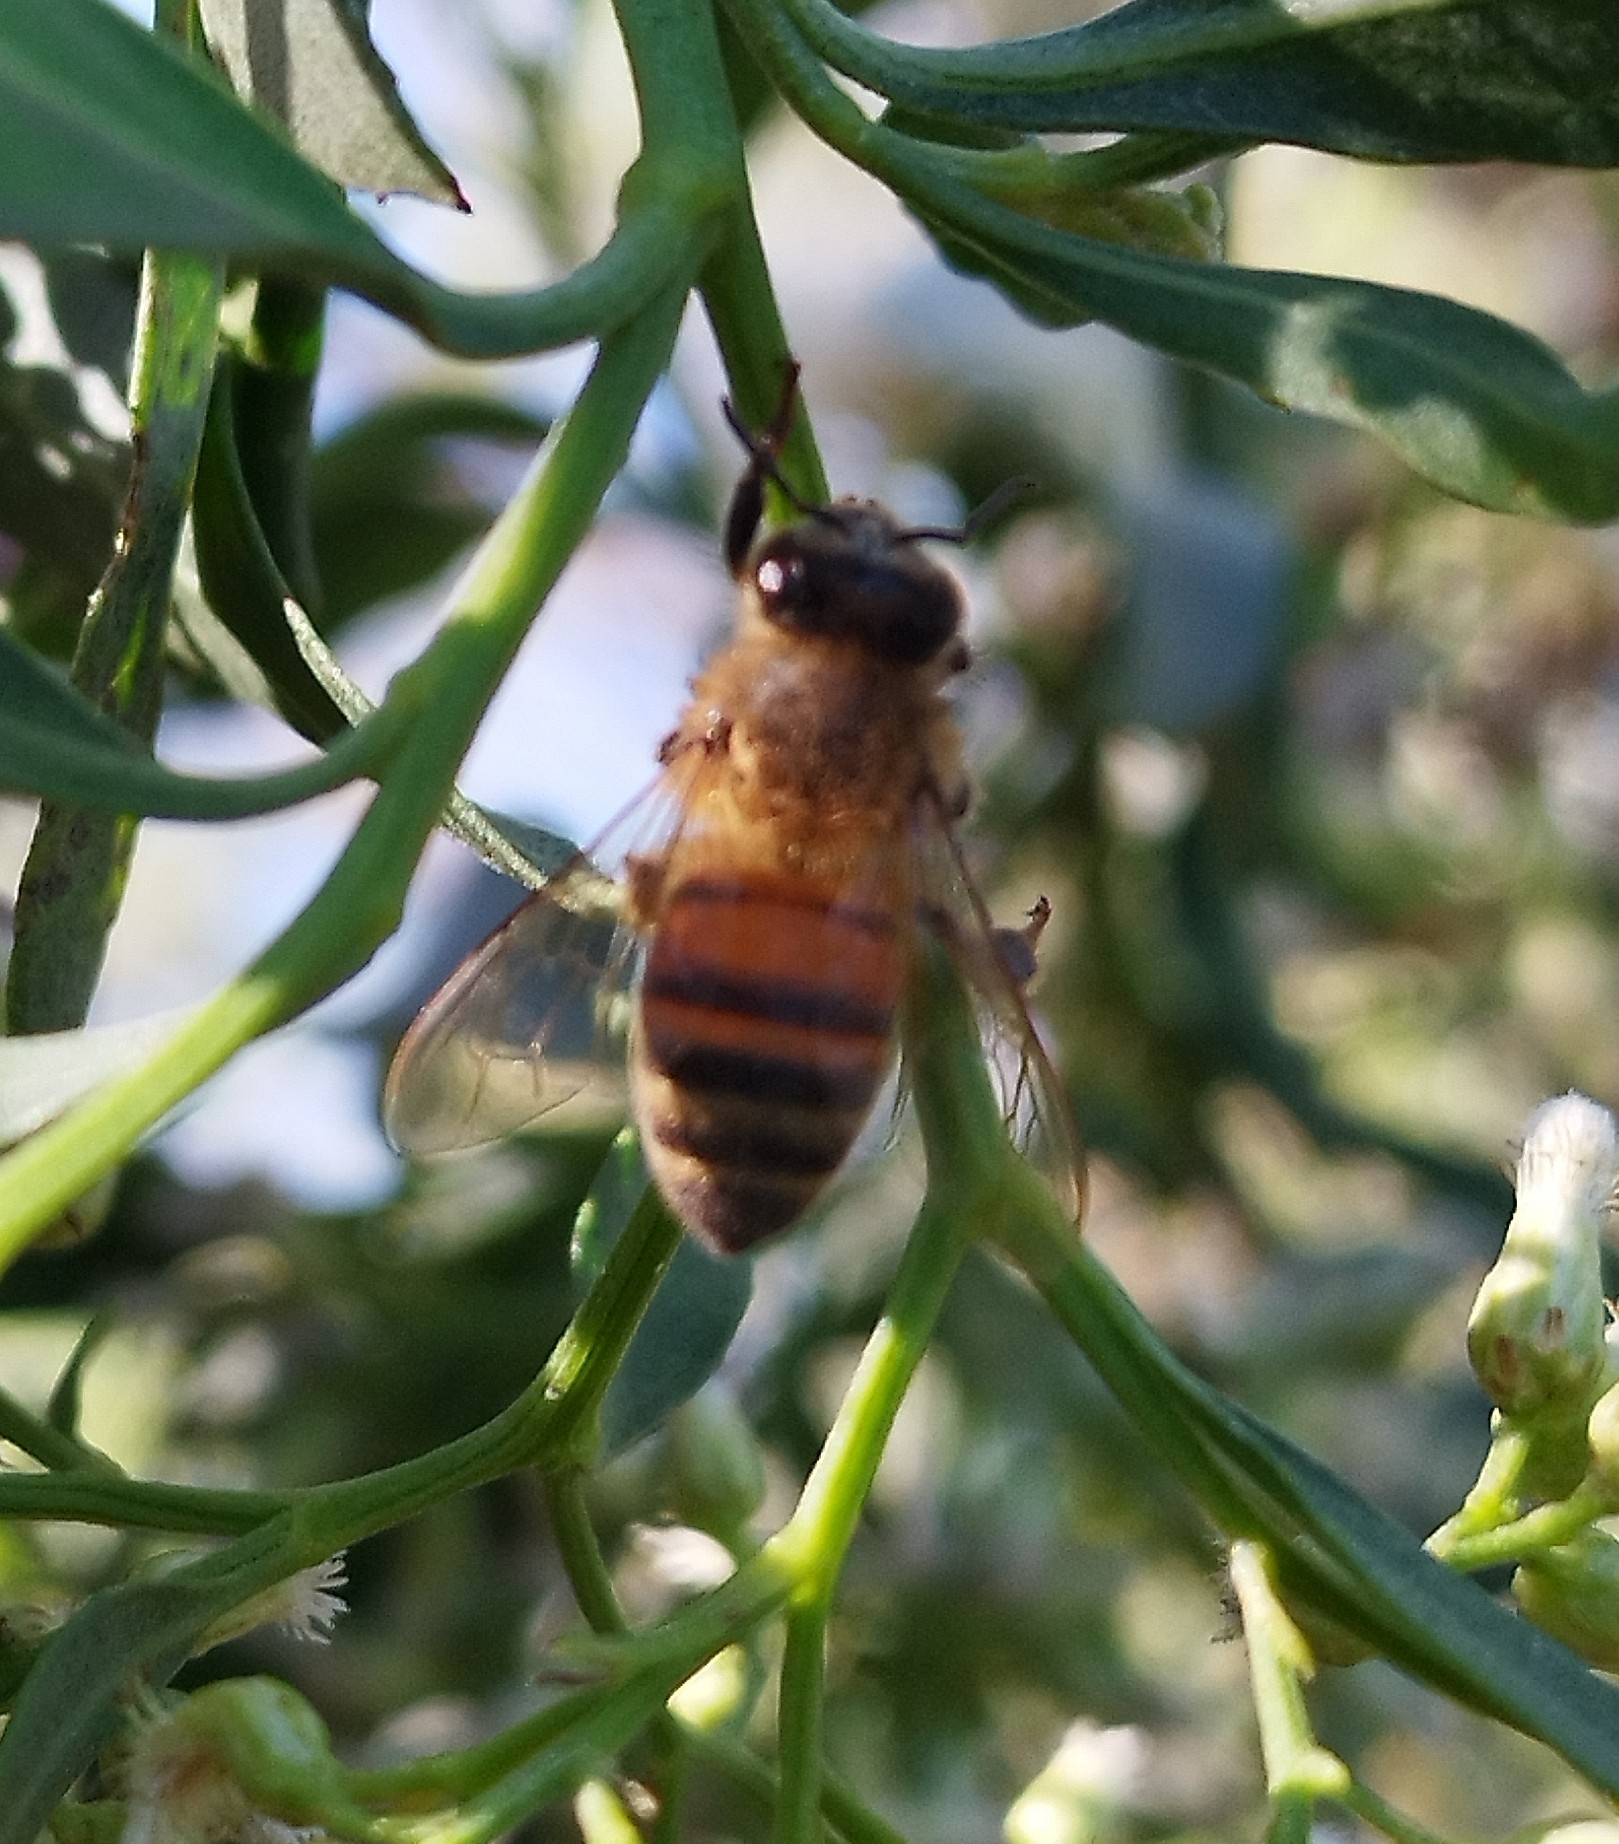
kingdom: Animalia
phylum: Arthropoda
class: Insecta
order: Hymenoptera
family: Apidae
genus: Apis
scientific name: Apis mellifera
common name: Honey bee
